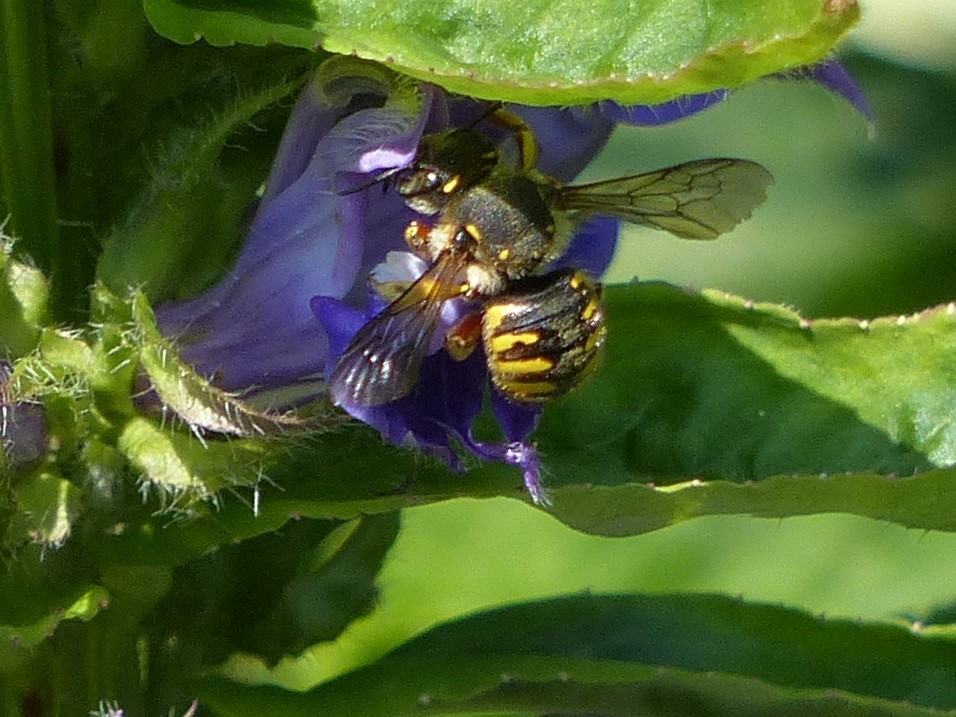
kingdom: Animalia
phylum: Arthropoda
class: Insecta
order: Hymenoptera
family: Megachilidae
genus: Anthidium
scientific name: Anthidium manicatum
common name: Wool carder bee
